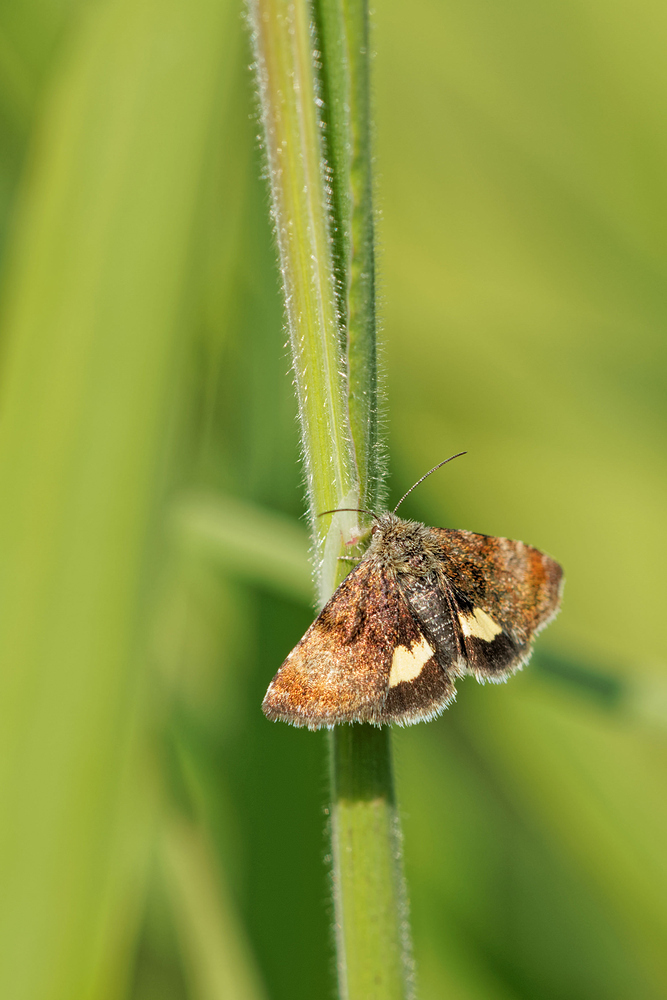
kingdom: Animalia
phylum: Arthropoda
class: Insecta
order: Lepidoptera
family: Noctuidae
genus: Panemeria
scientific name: Panemeria tenebrata
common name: Small yellow underwing
